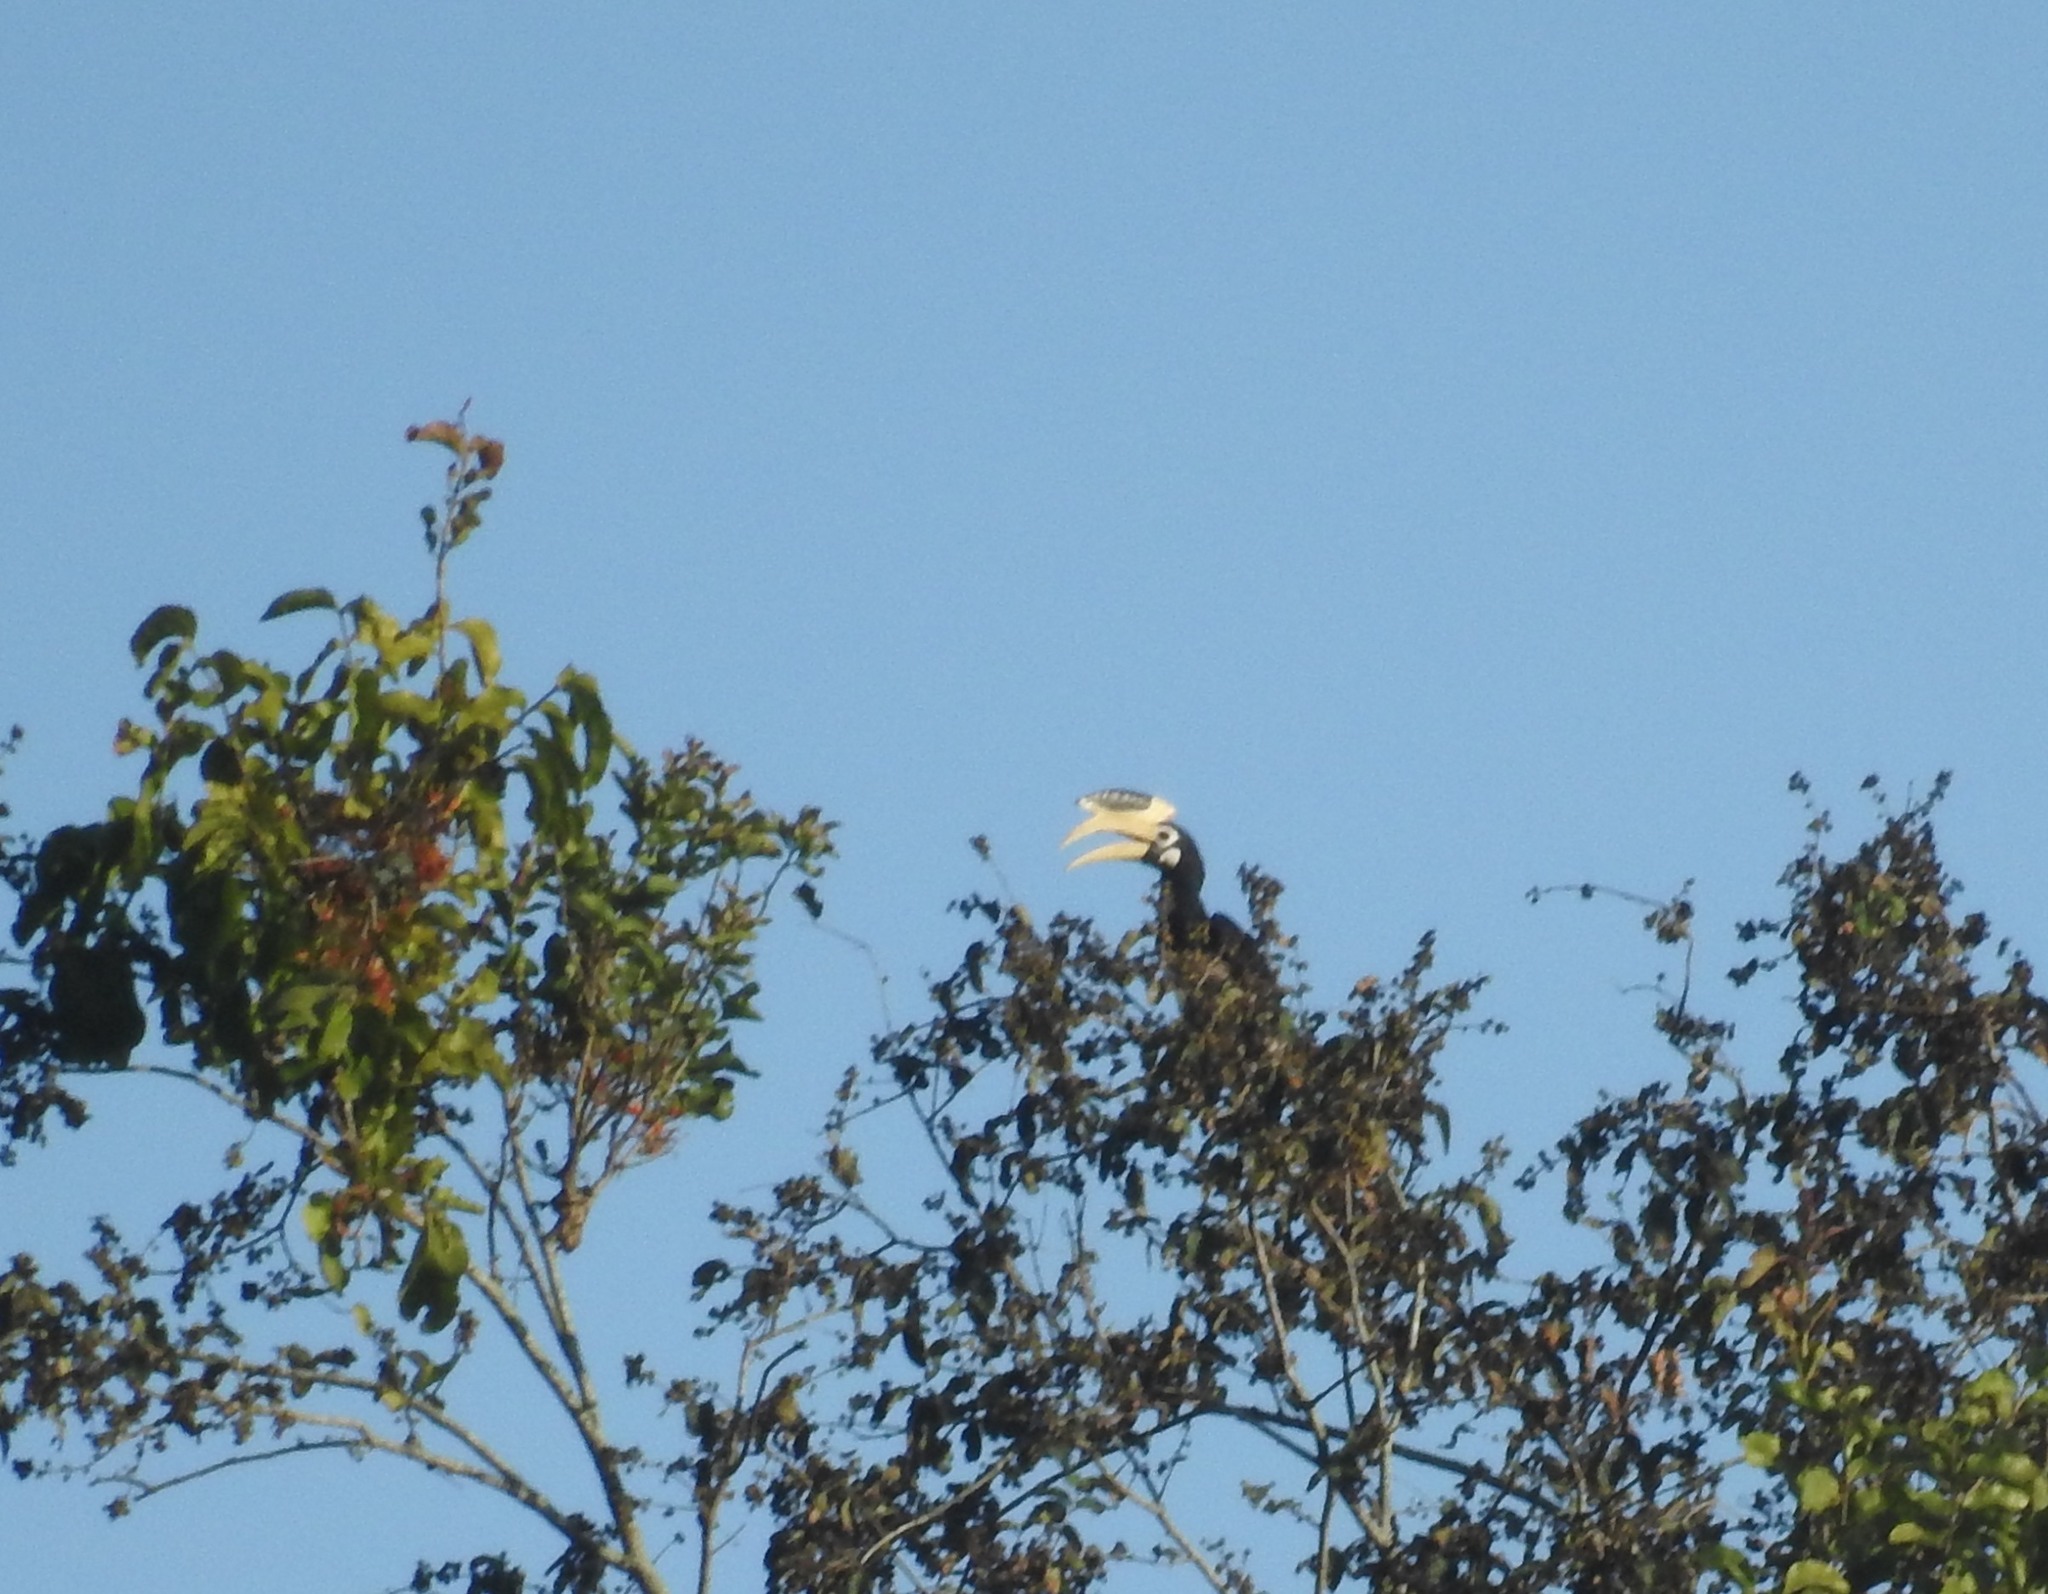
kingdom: Animalia
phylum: Chordata
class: Aves
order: Bucerotiformes
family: Bucerotidae
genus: Anthracoceros
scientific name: Anthracoceros coronatus
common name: Malabar pied hornbill
